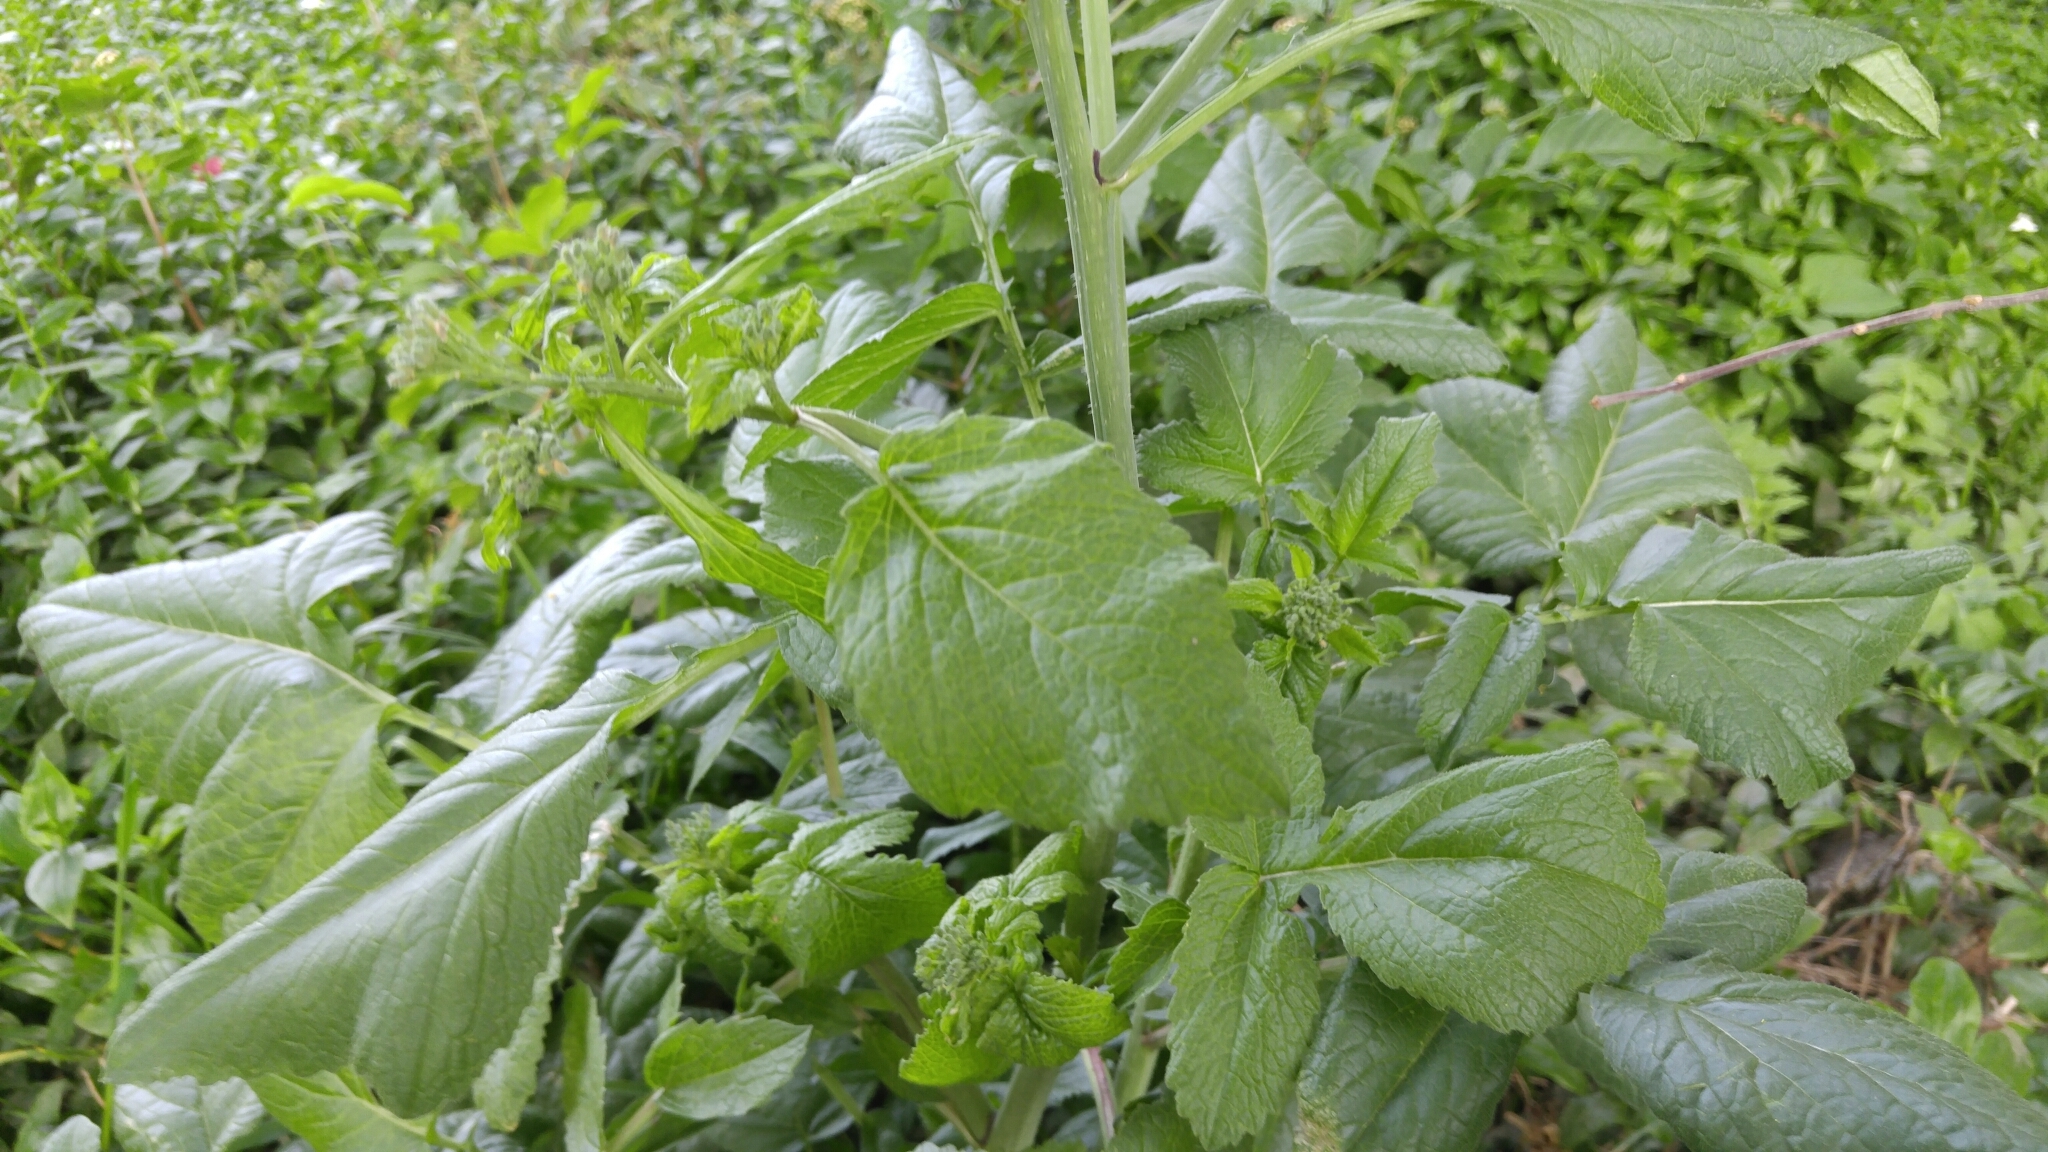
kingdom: Plantae
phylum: Tracheophyta
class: Magnoliopsida
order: Brassicales
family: Brassicaceae
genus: Raphanus
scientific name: Raphanus sativus
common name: Cultivated radish
